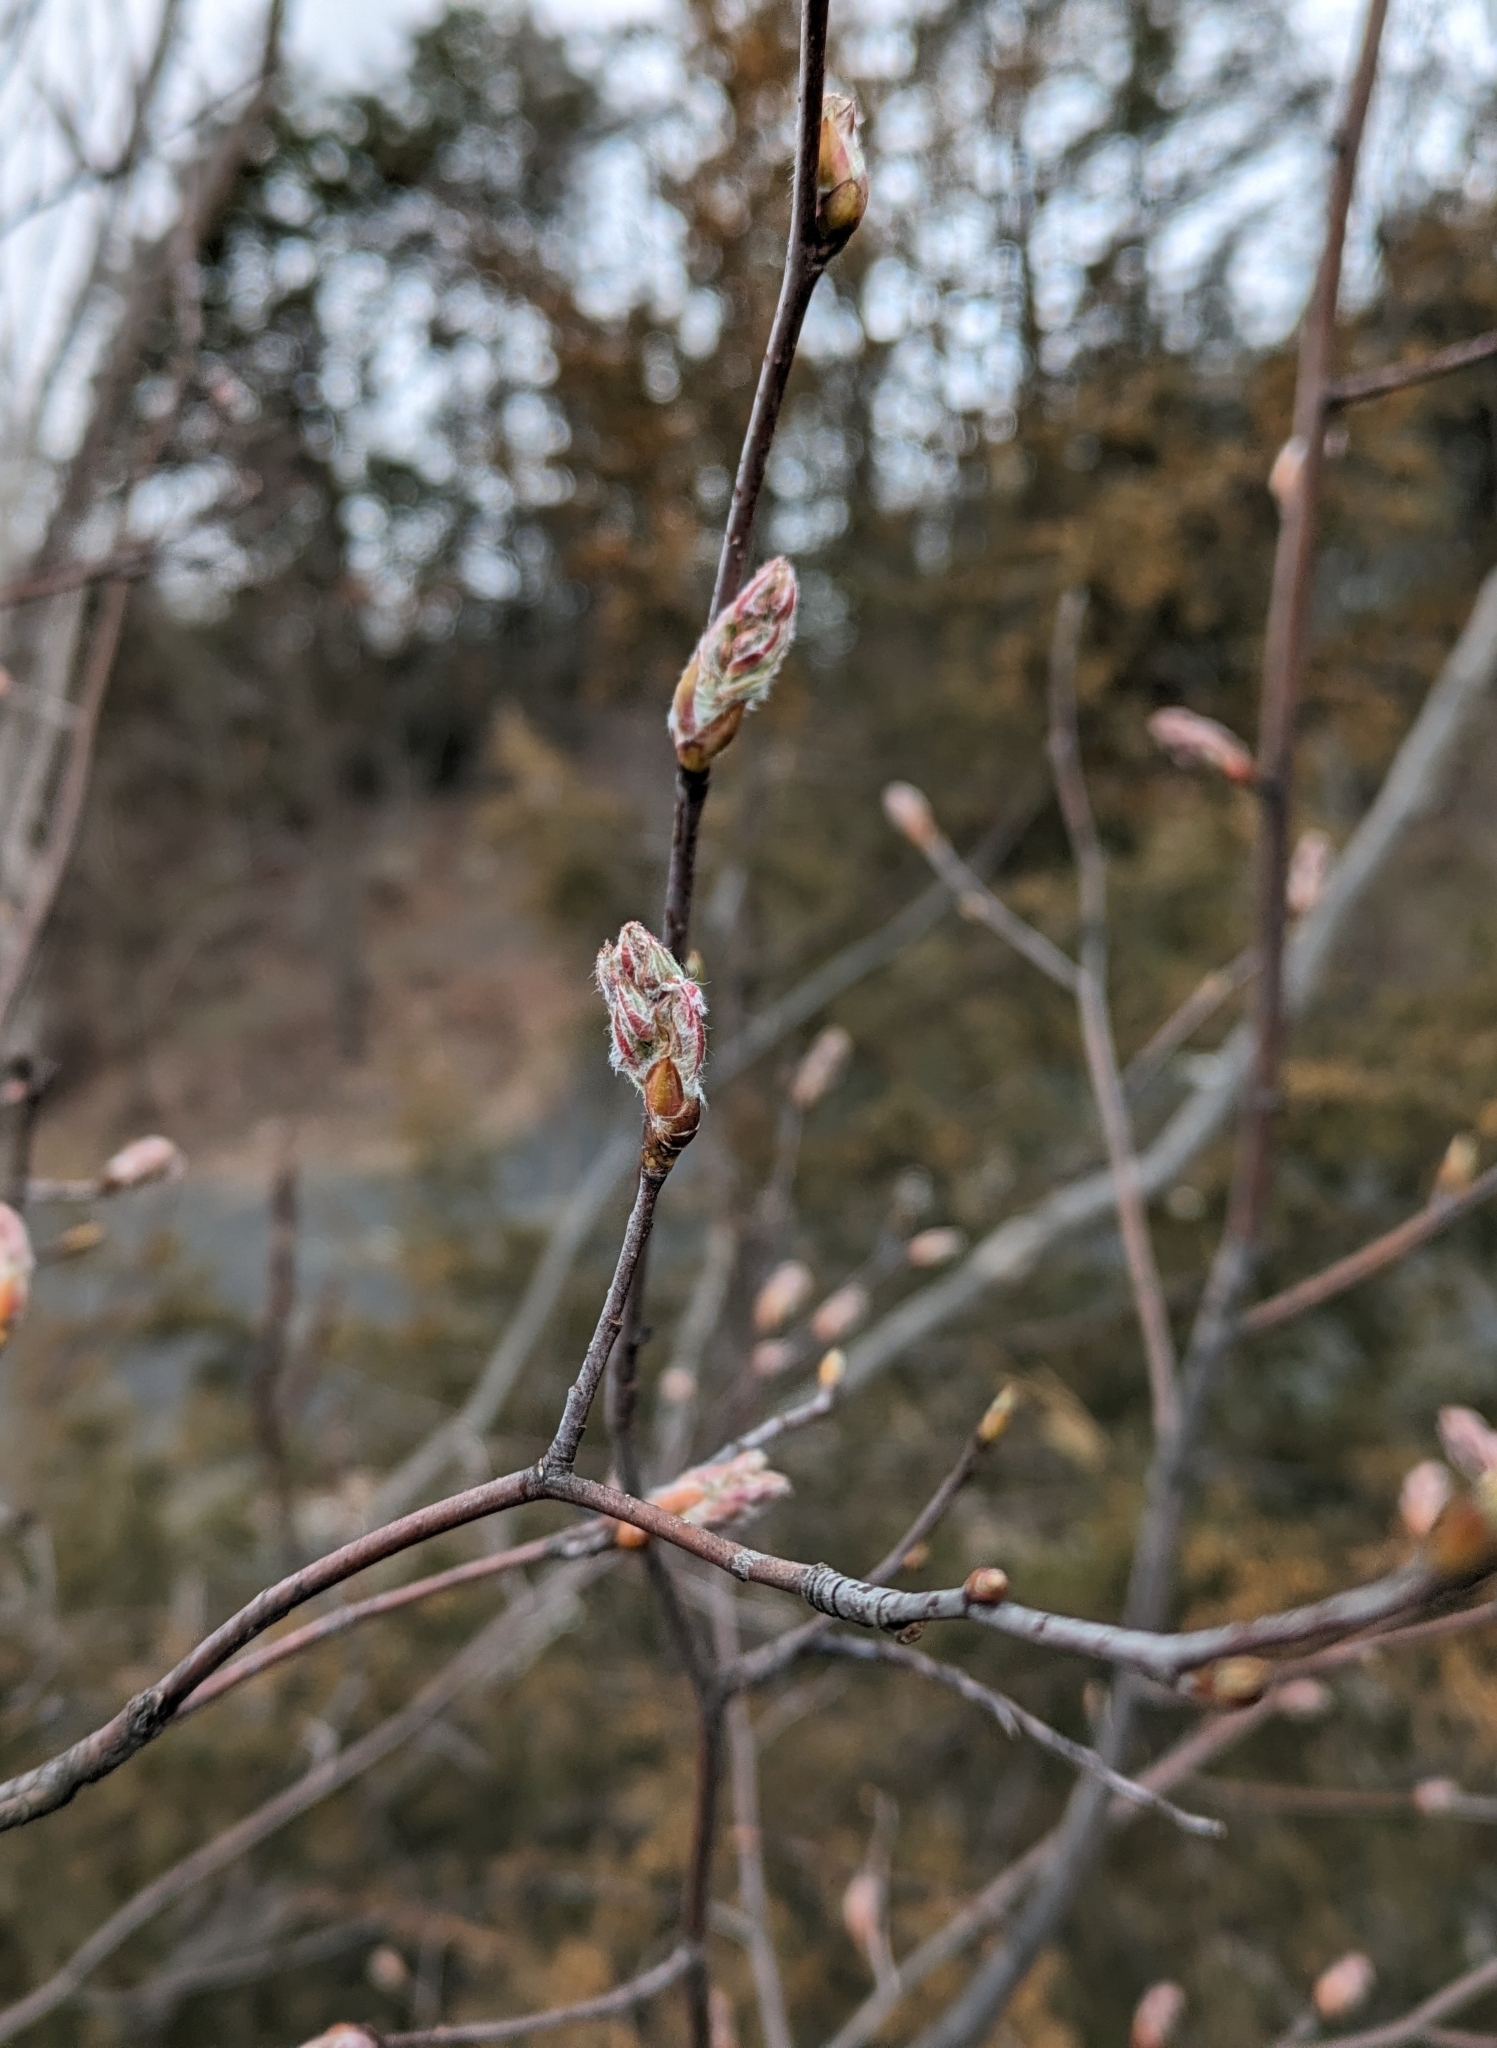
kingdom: Plantae
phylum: Tracheophyta
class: Magnoliopsida
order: Rosales
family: Rosaceae
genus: Amelanchier
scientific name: Amelanchier arborea
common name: Downy serviceberry
